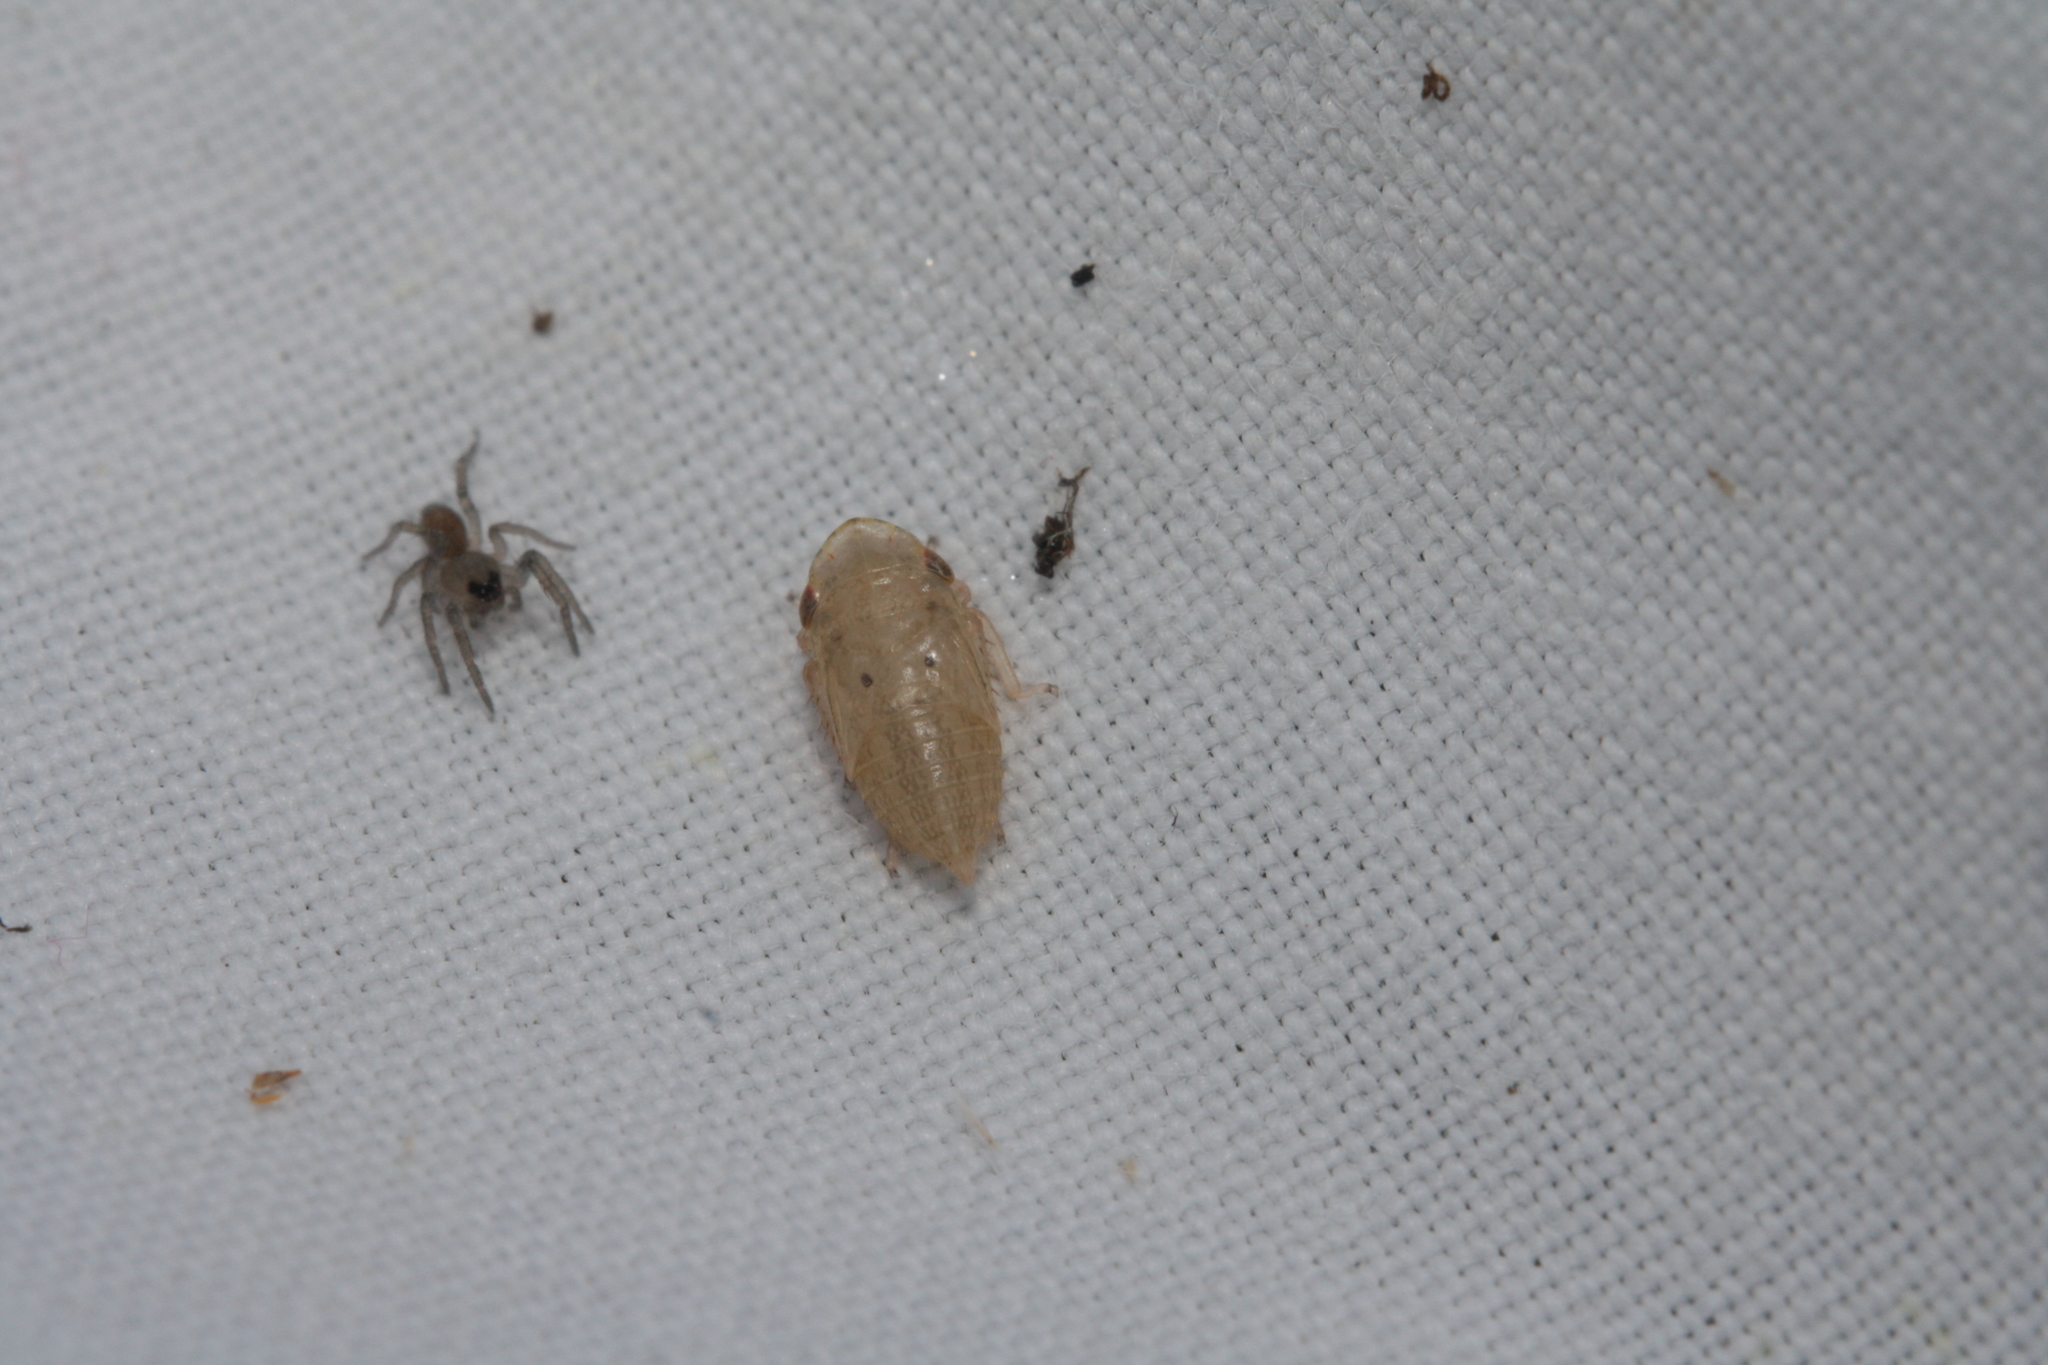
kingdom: Animalia
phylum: Arthropoda
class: Insecta
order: Hemiptera
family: Cicadellidae
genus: Stroggylocephalus
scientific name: Stroggylocephalus agrestis
